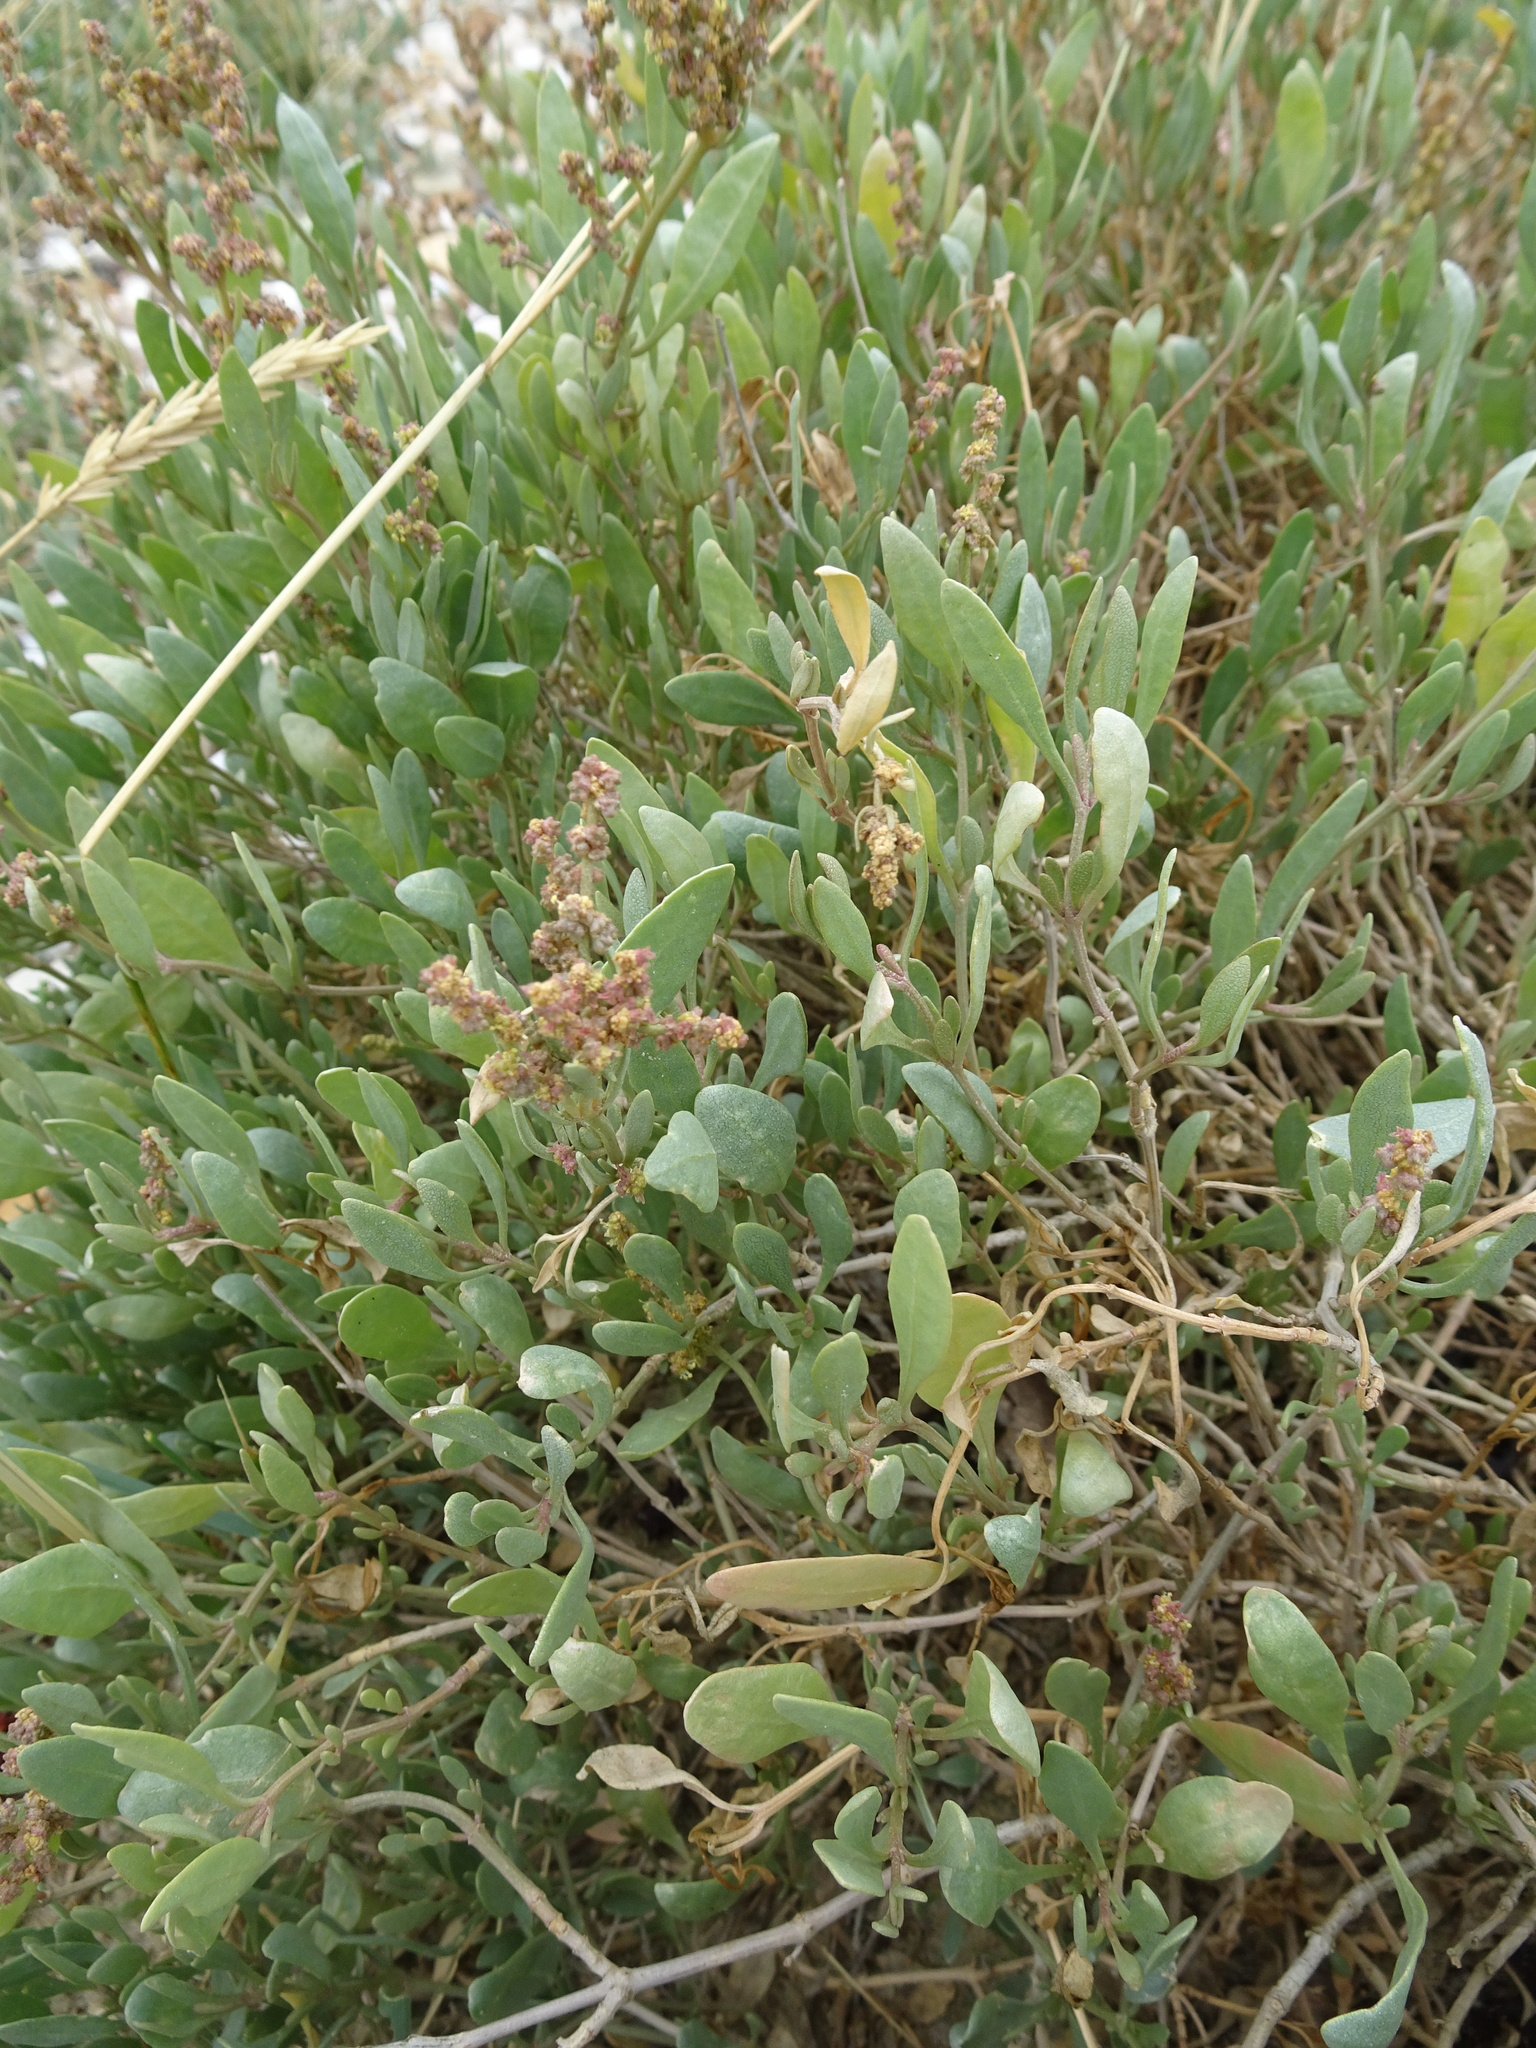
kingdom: Plantae
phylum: Tracheophyta
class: Magnoliopsida
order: Caryophyllales
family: Amaranthaceae
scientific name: Amaranthaceae
